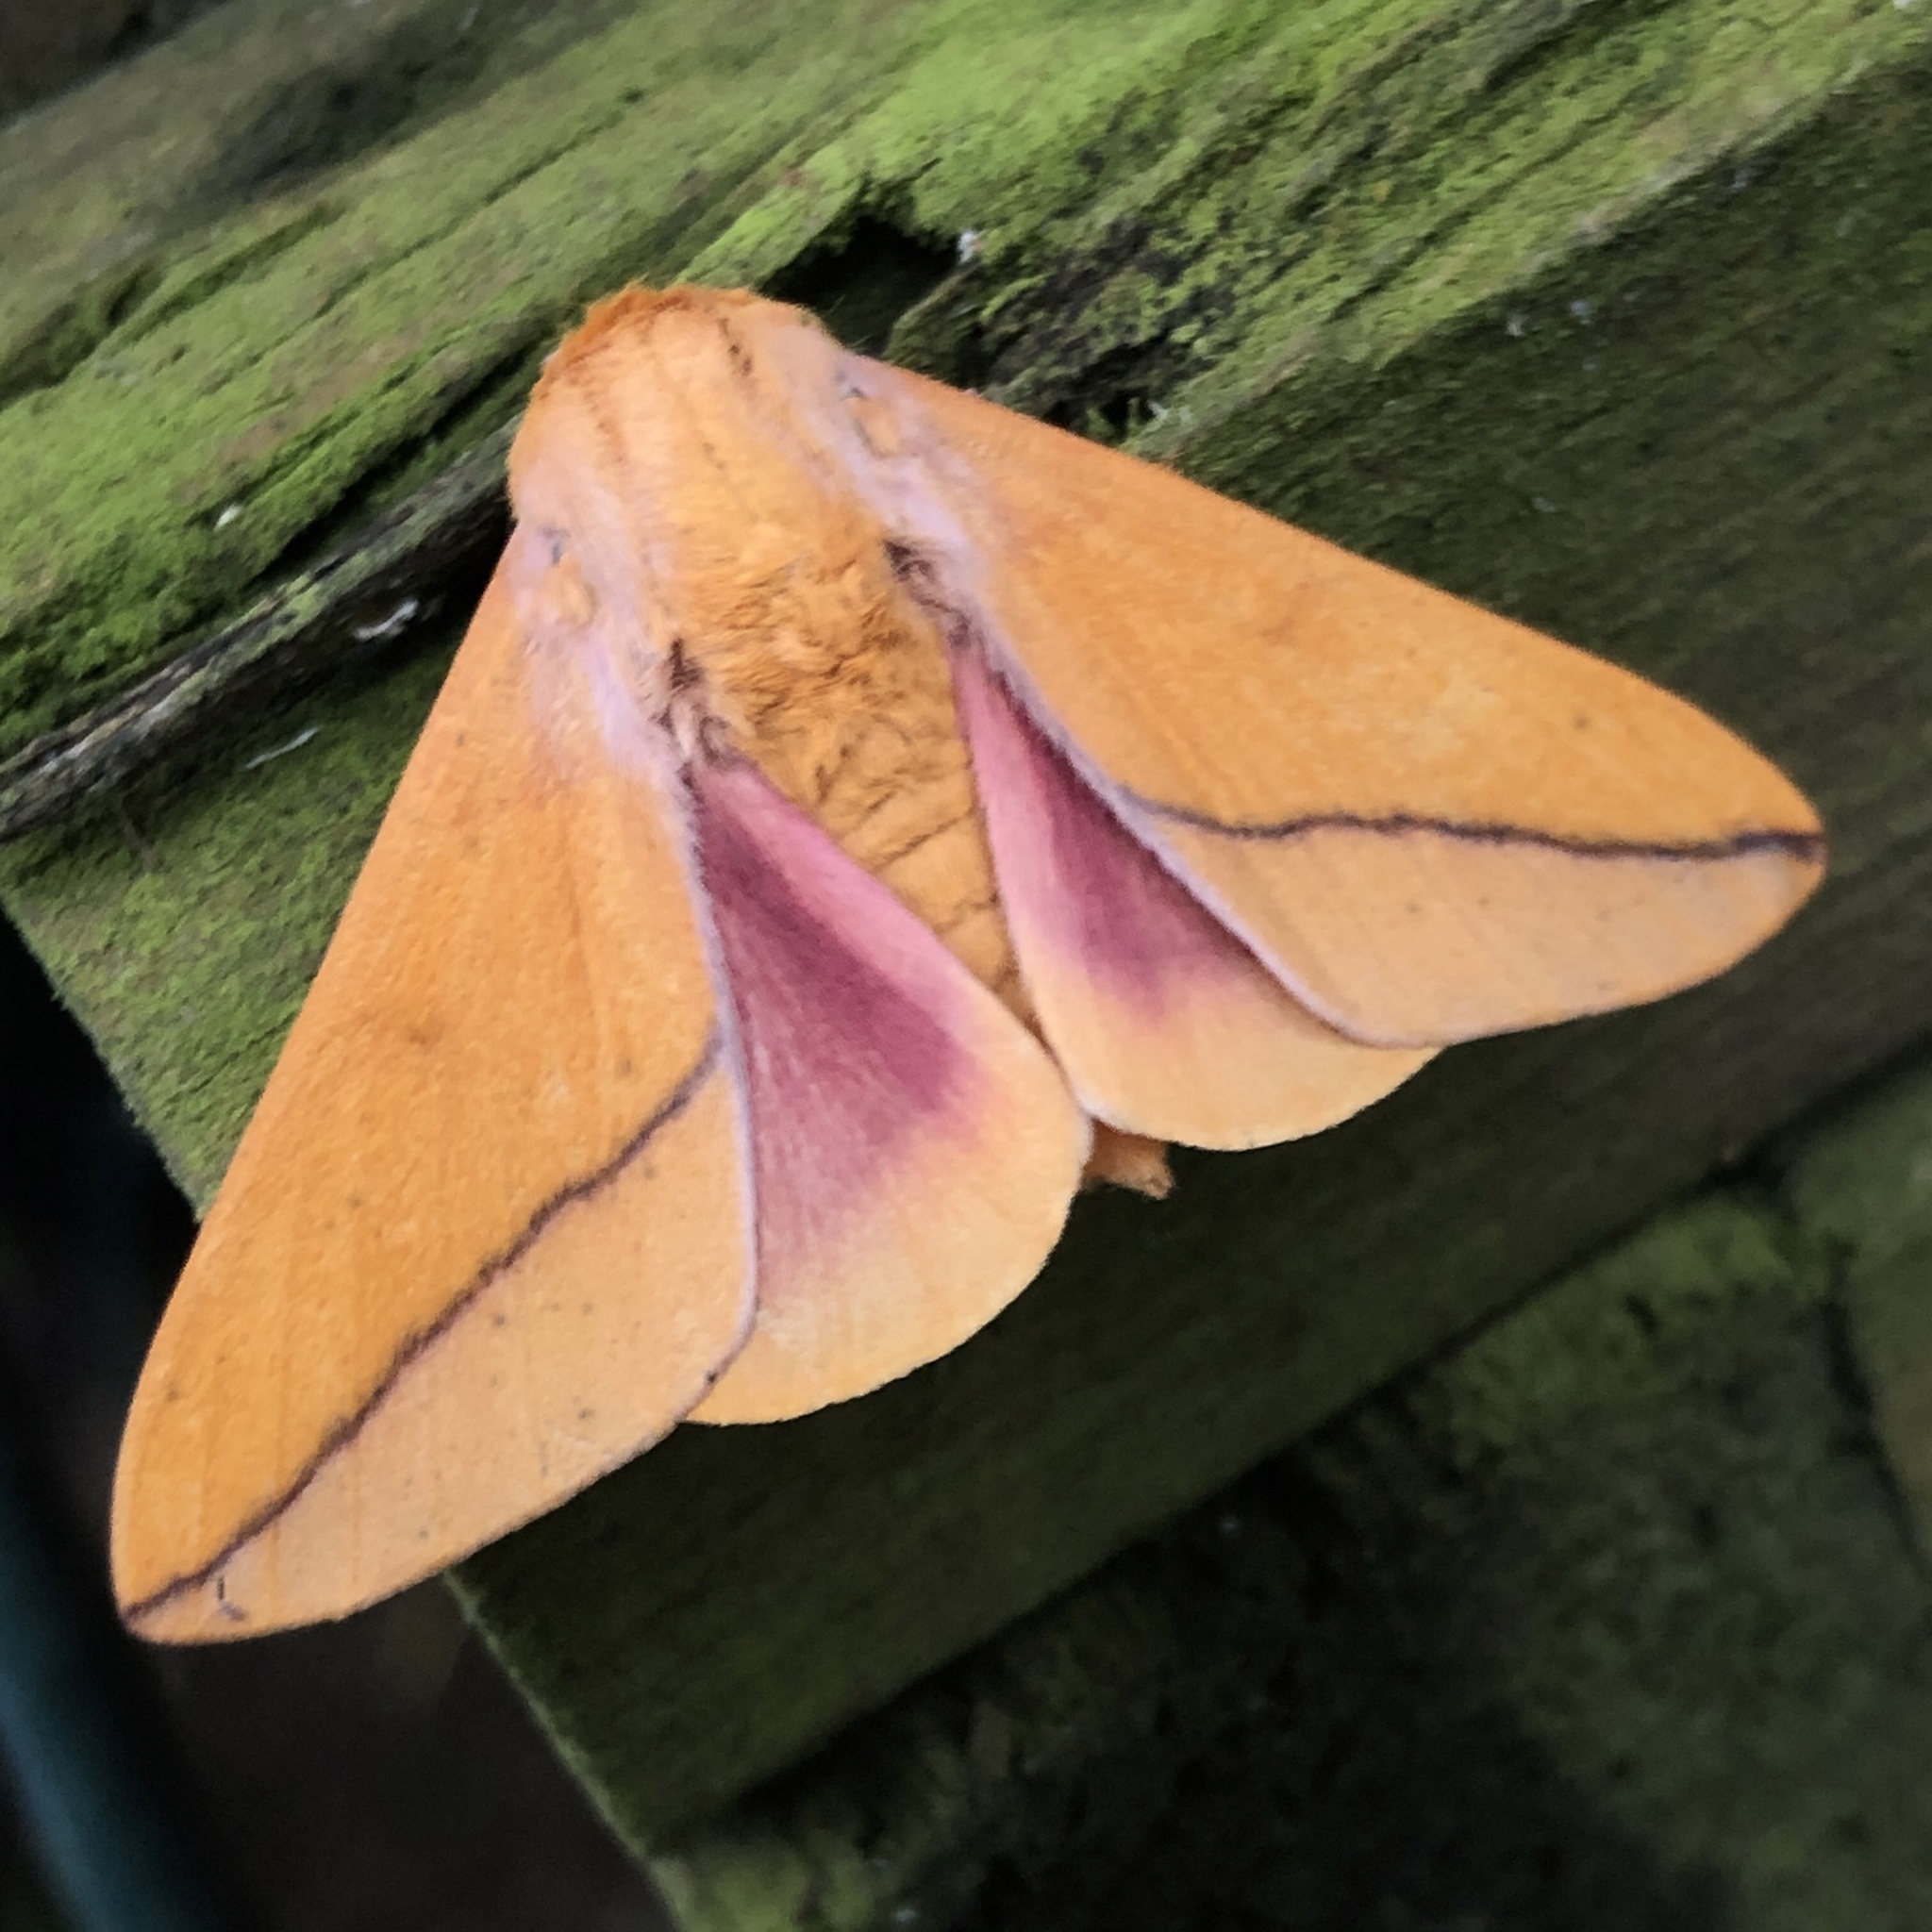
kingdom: Animalia
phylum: Arthropoda
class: Insecta
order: Lepidoptera
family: Saturniidae
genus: Syssphinx
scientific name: Syssphinx bisecta
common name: Bisected honey locust moth
